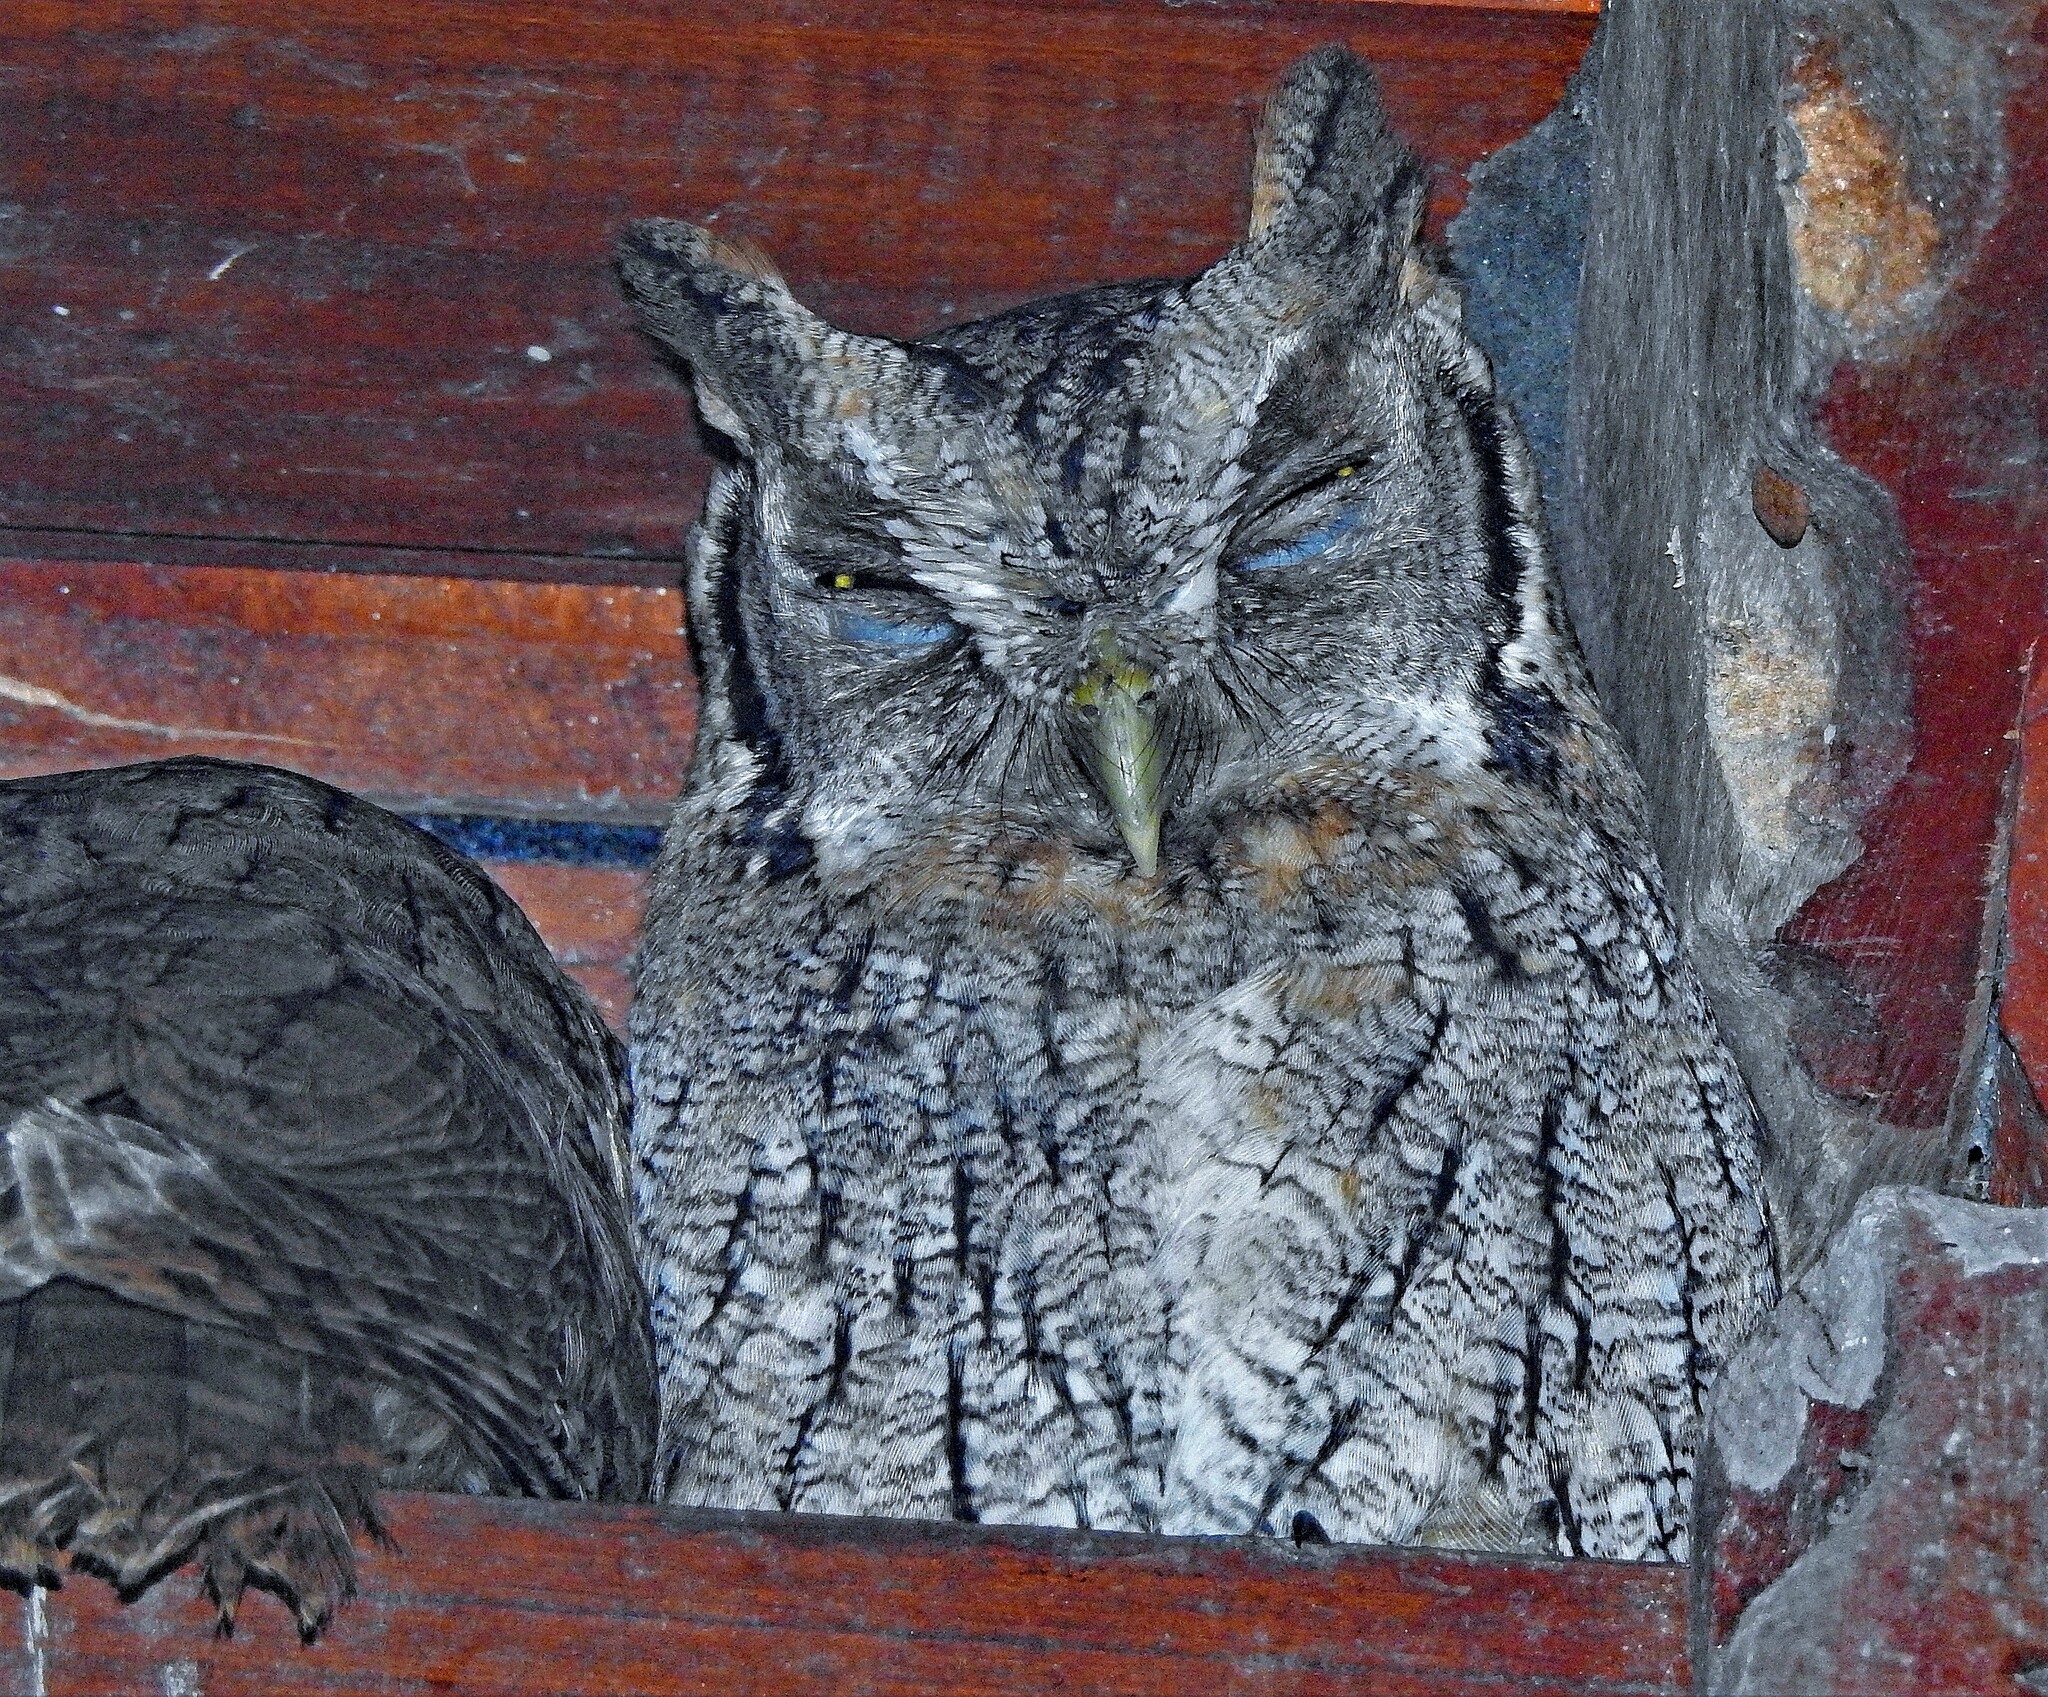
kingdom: Animalia
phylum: Chordata
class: Aves
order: Strigiformes
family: Strigidae
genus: Megascops
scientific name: Megascops choliba
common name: Tropical screech-owl
